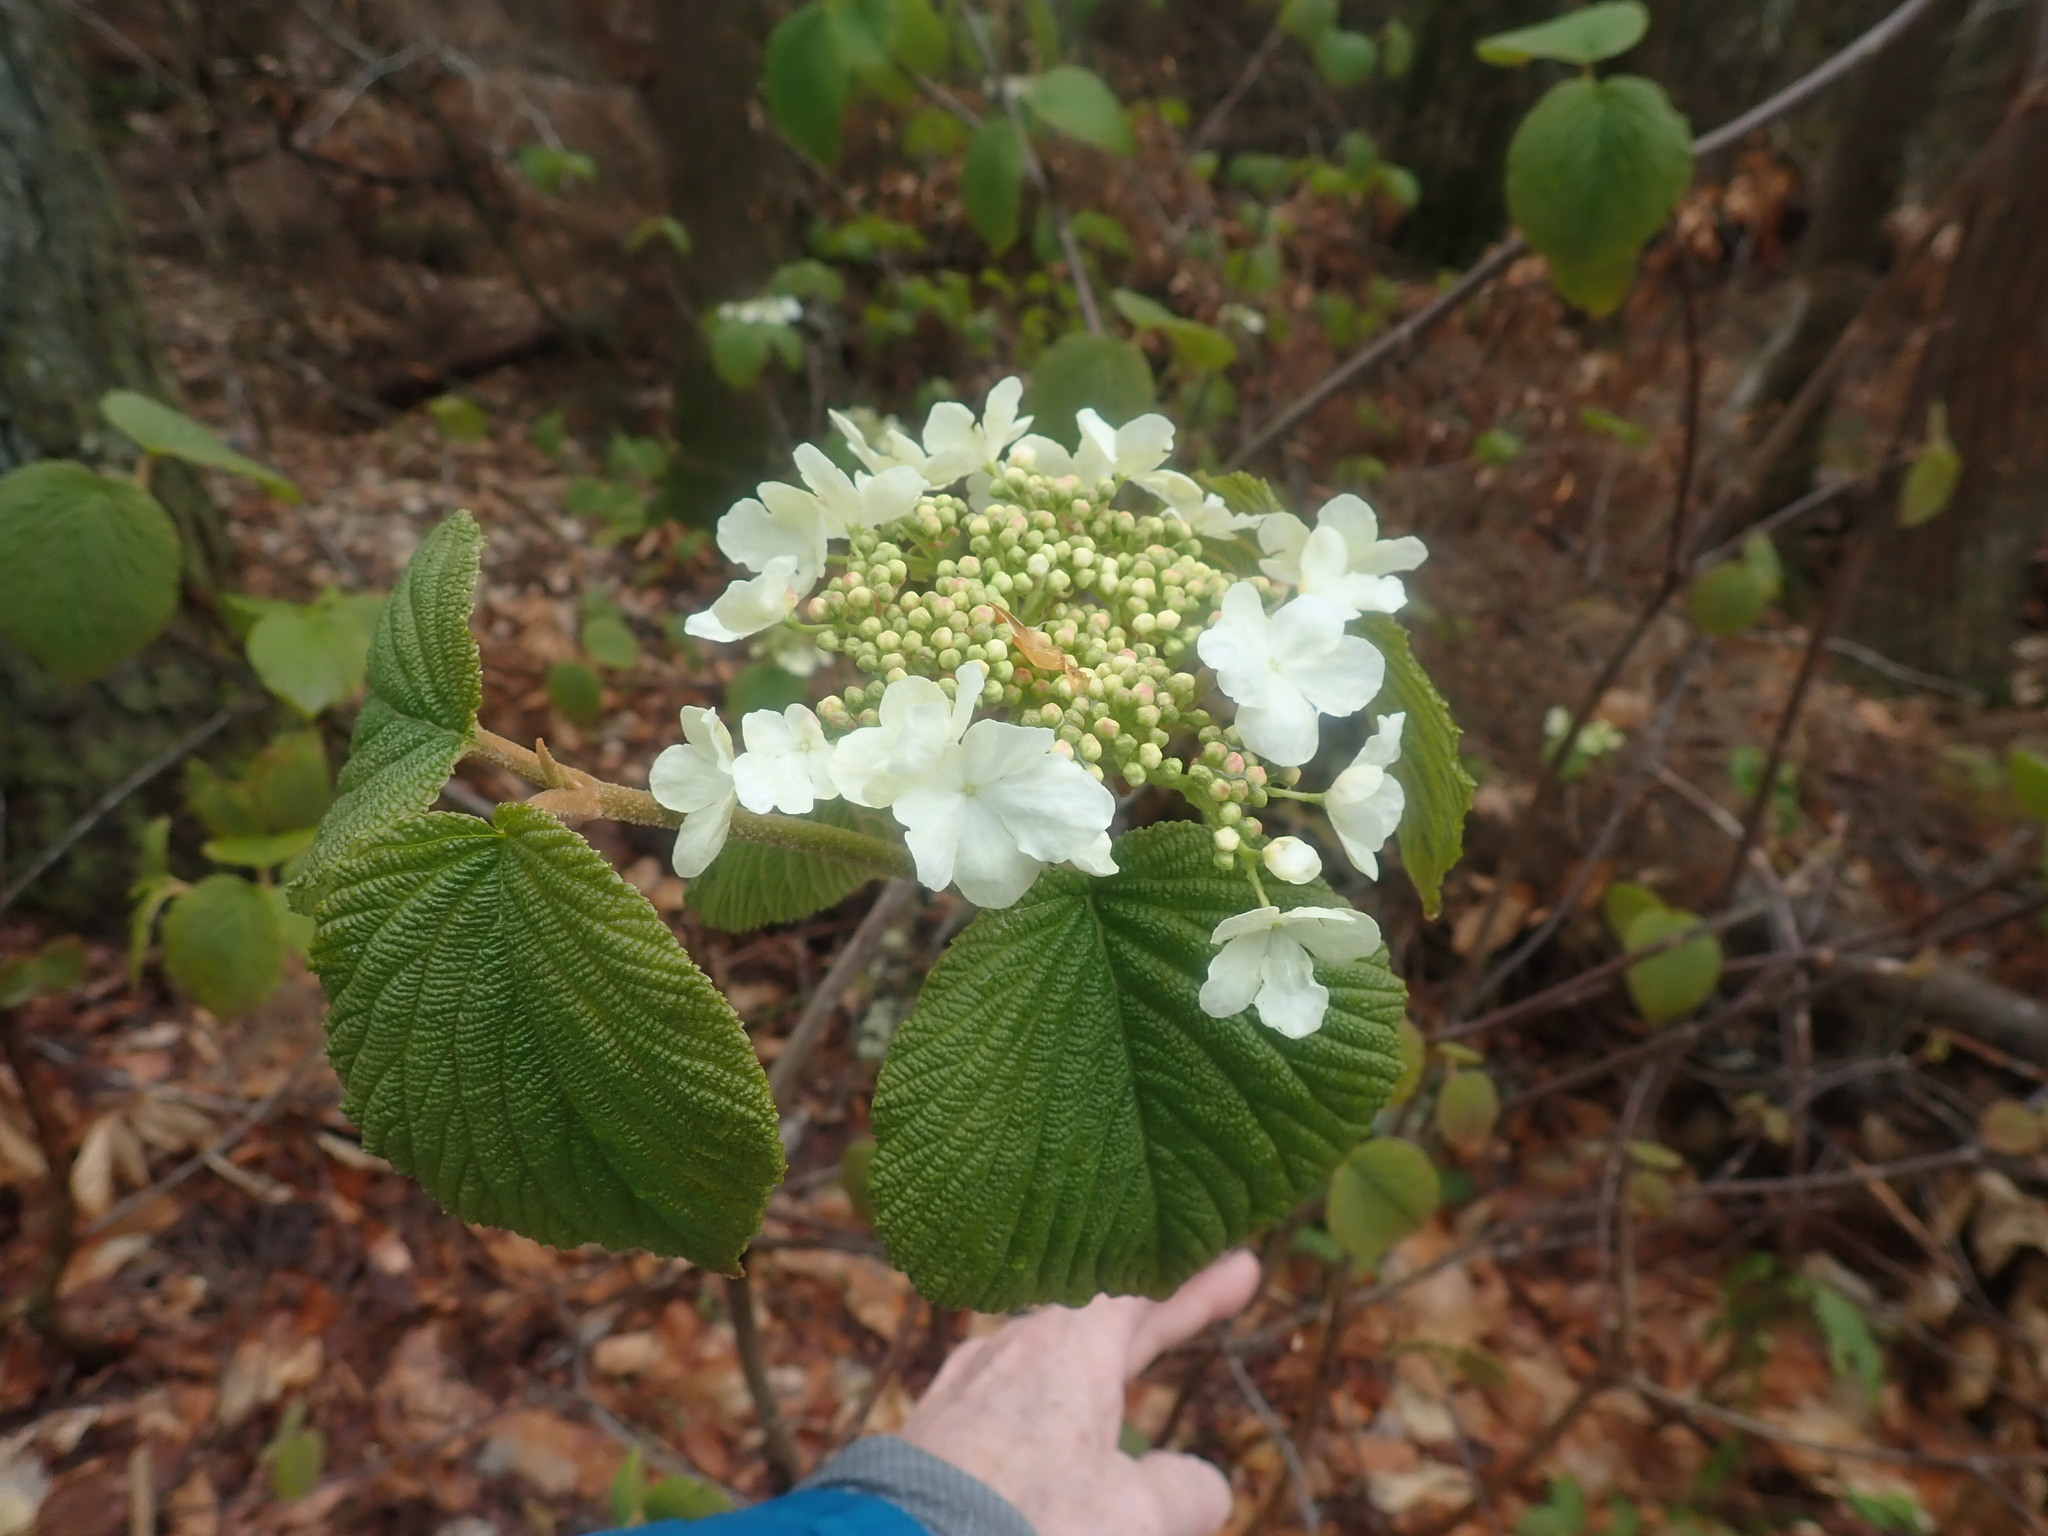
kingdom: Plantae
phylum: Tracheophyta
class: Magnoliopsida
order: Dipsacales
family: Viburnaceae
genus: Viburnum
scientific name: Viburnum lantanoides
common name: Hobblebush
